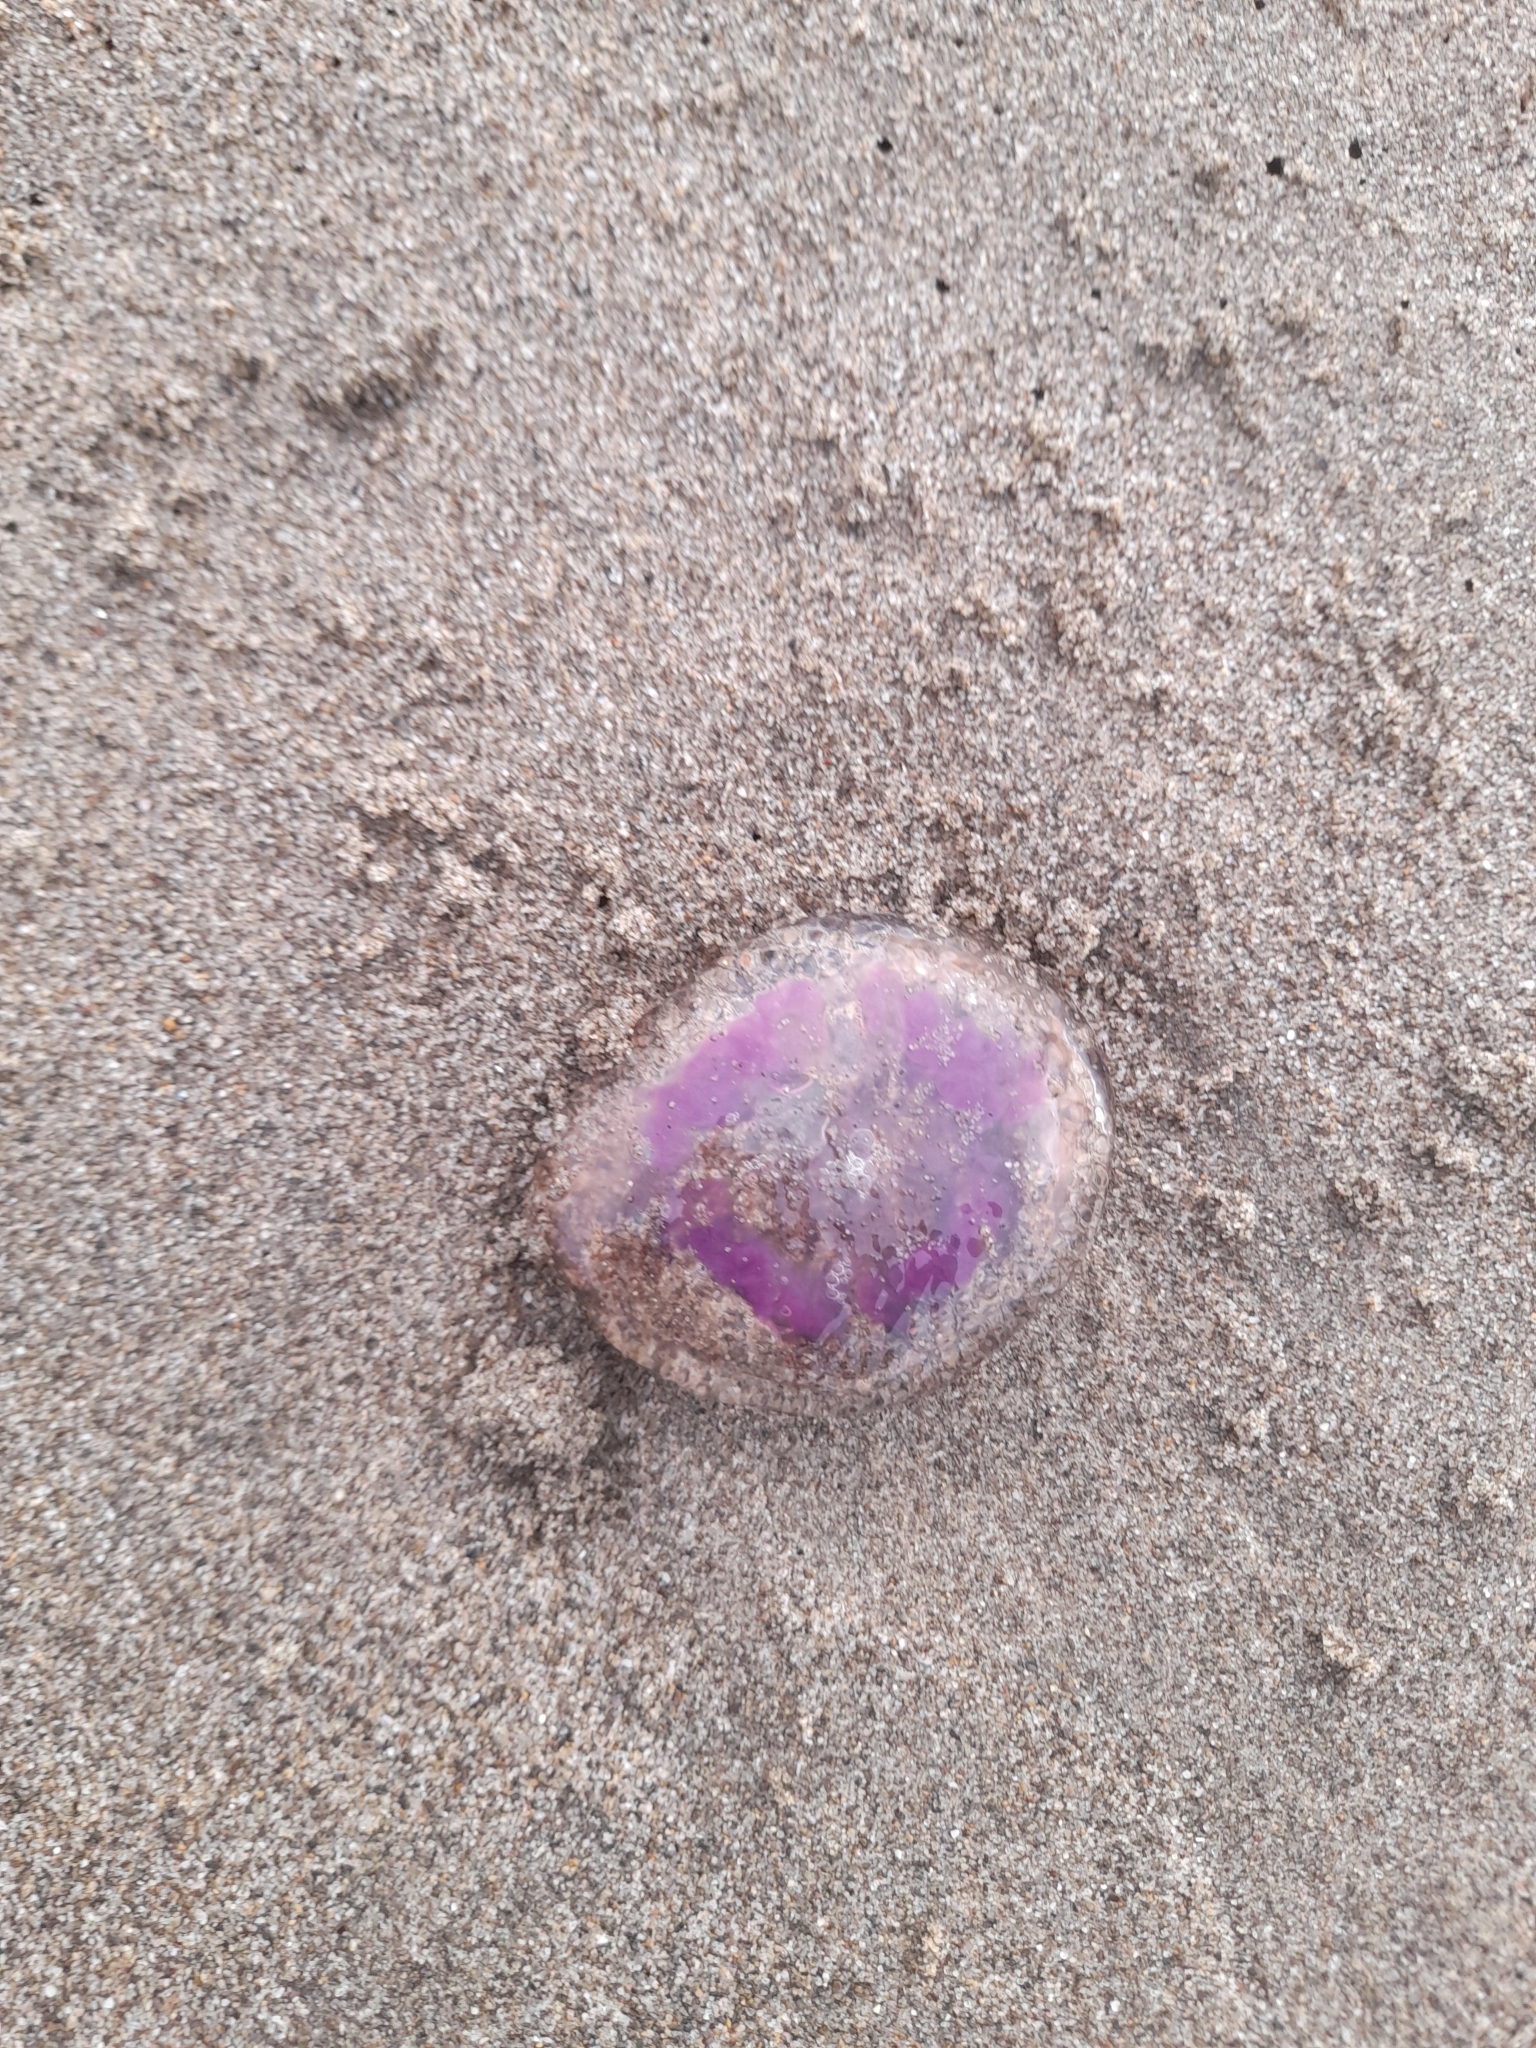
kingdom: Animalia
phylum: Cnidaria
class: Scyphozoa
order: Semaeostomeae
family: Pelagiidae
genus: Pelagia
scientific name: Pelagia noctiluca
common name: Mauve stinger
